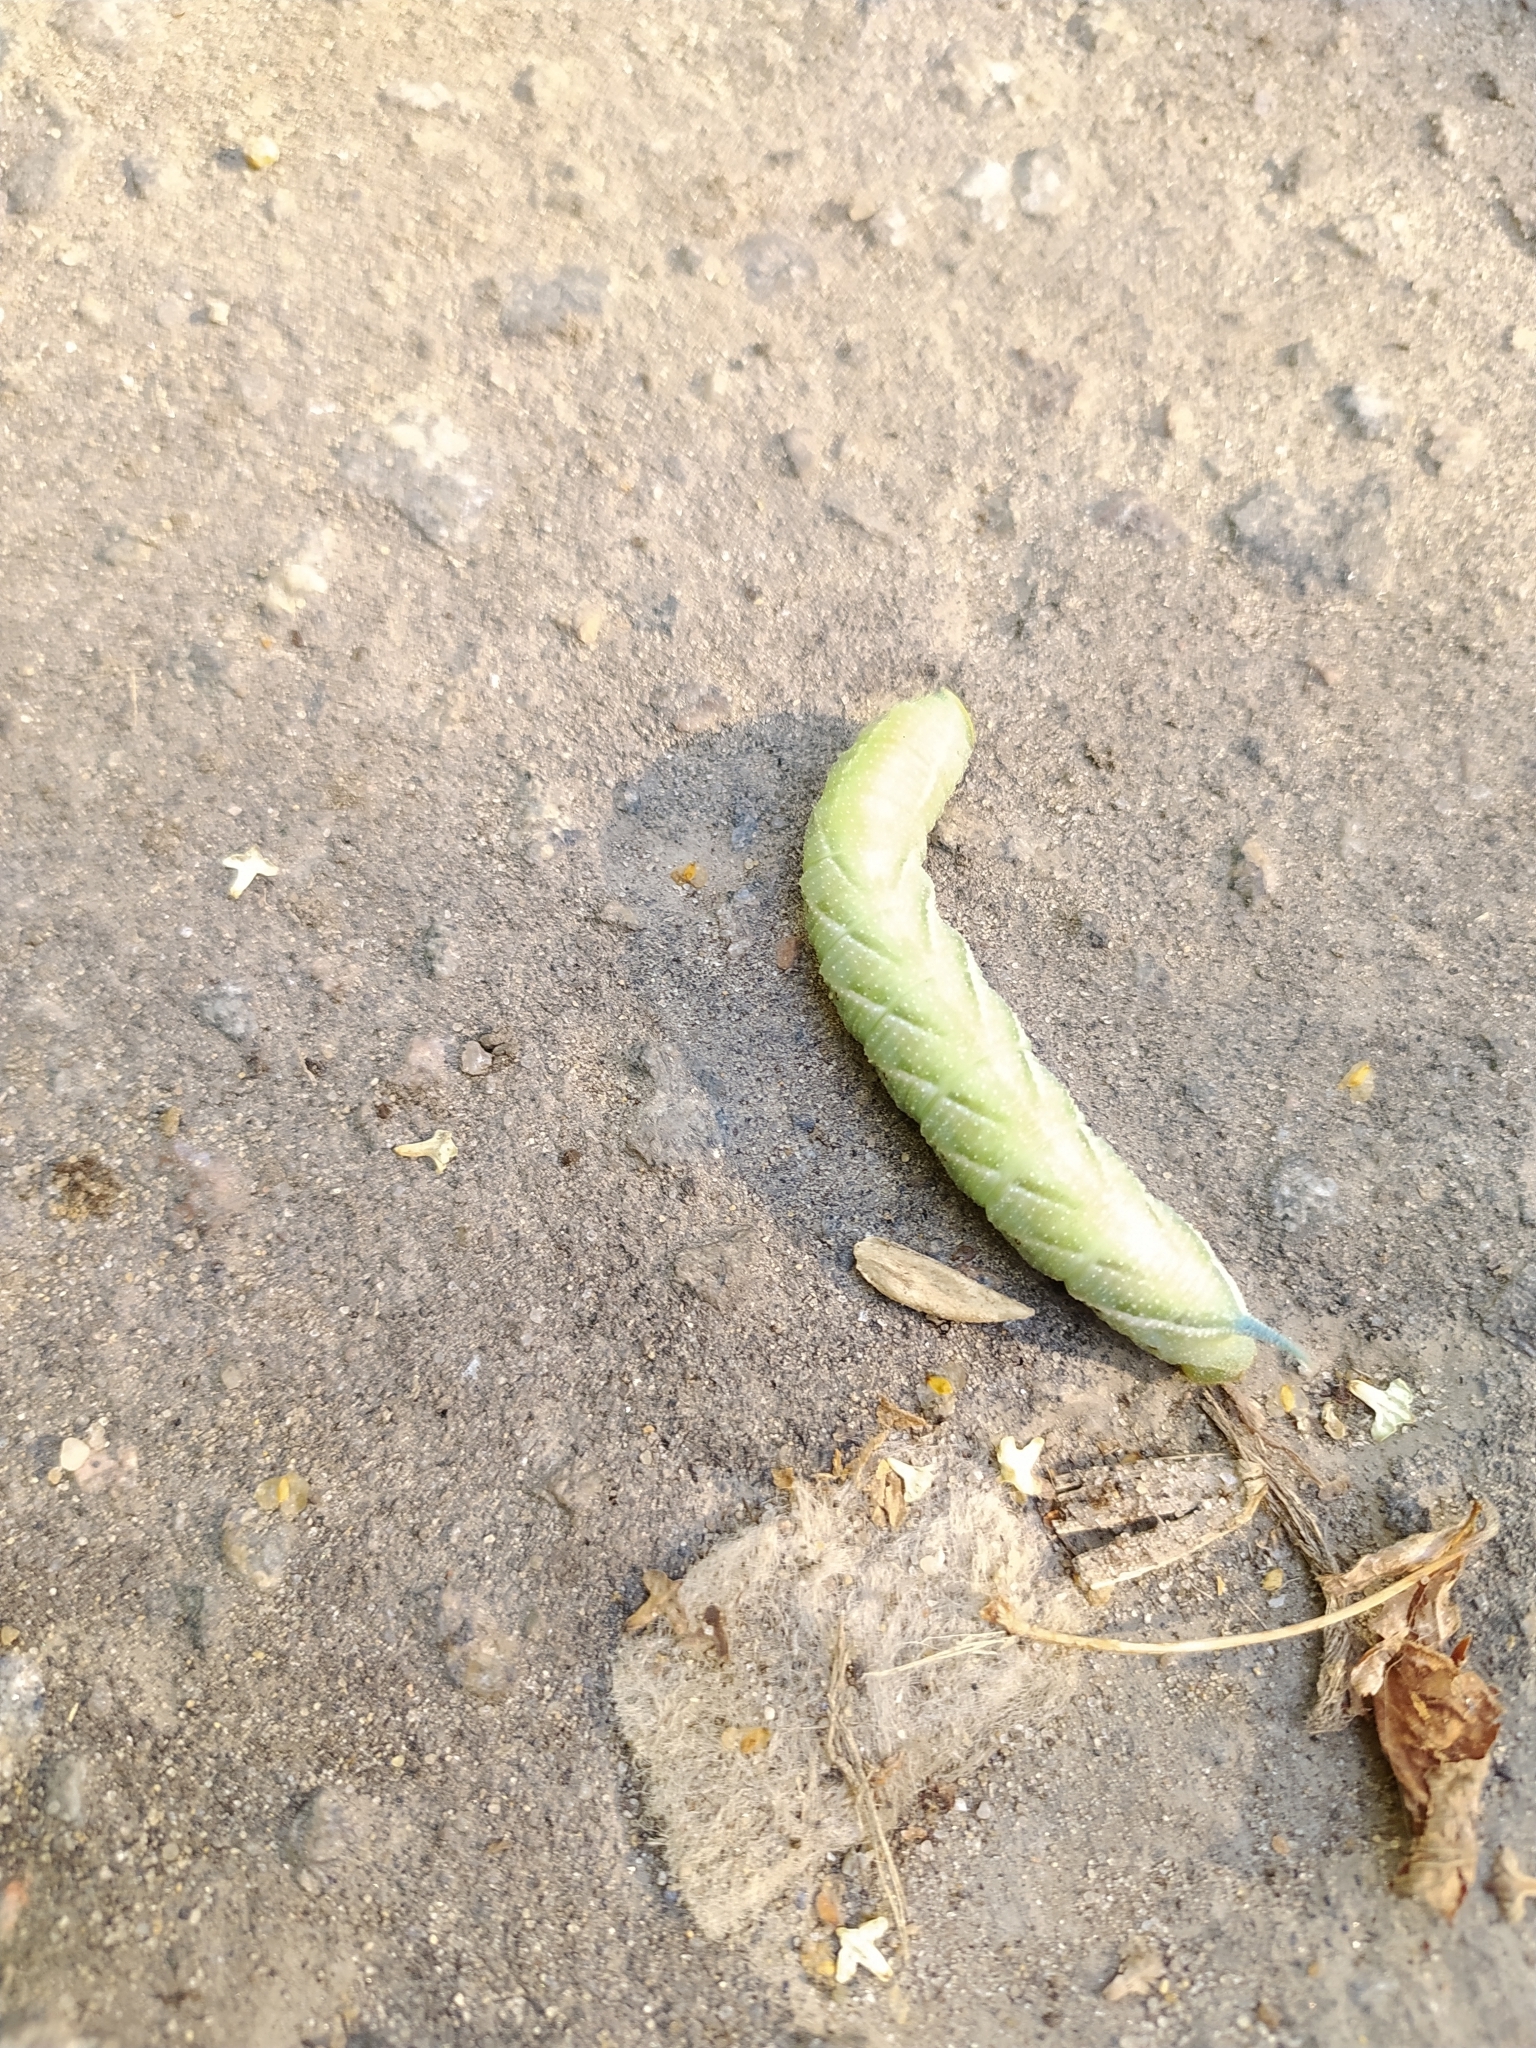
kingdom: Animalia
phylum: Arthropoda
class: Insecta
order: Lepidoptera
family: Sphingidae
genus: Smerinthus
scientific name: Smerinthus ocellata
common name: Eyed hawk-moth
